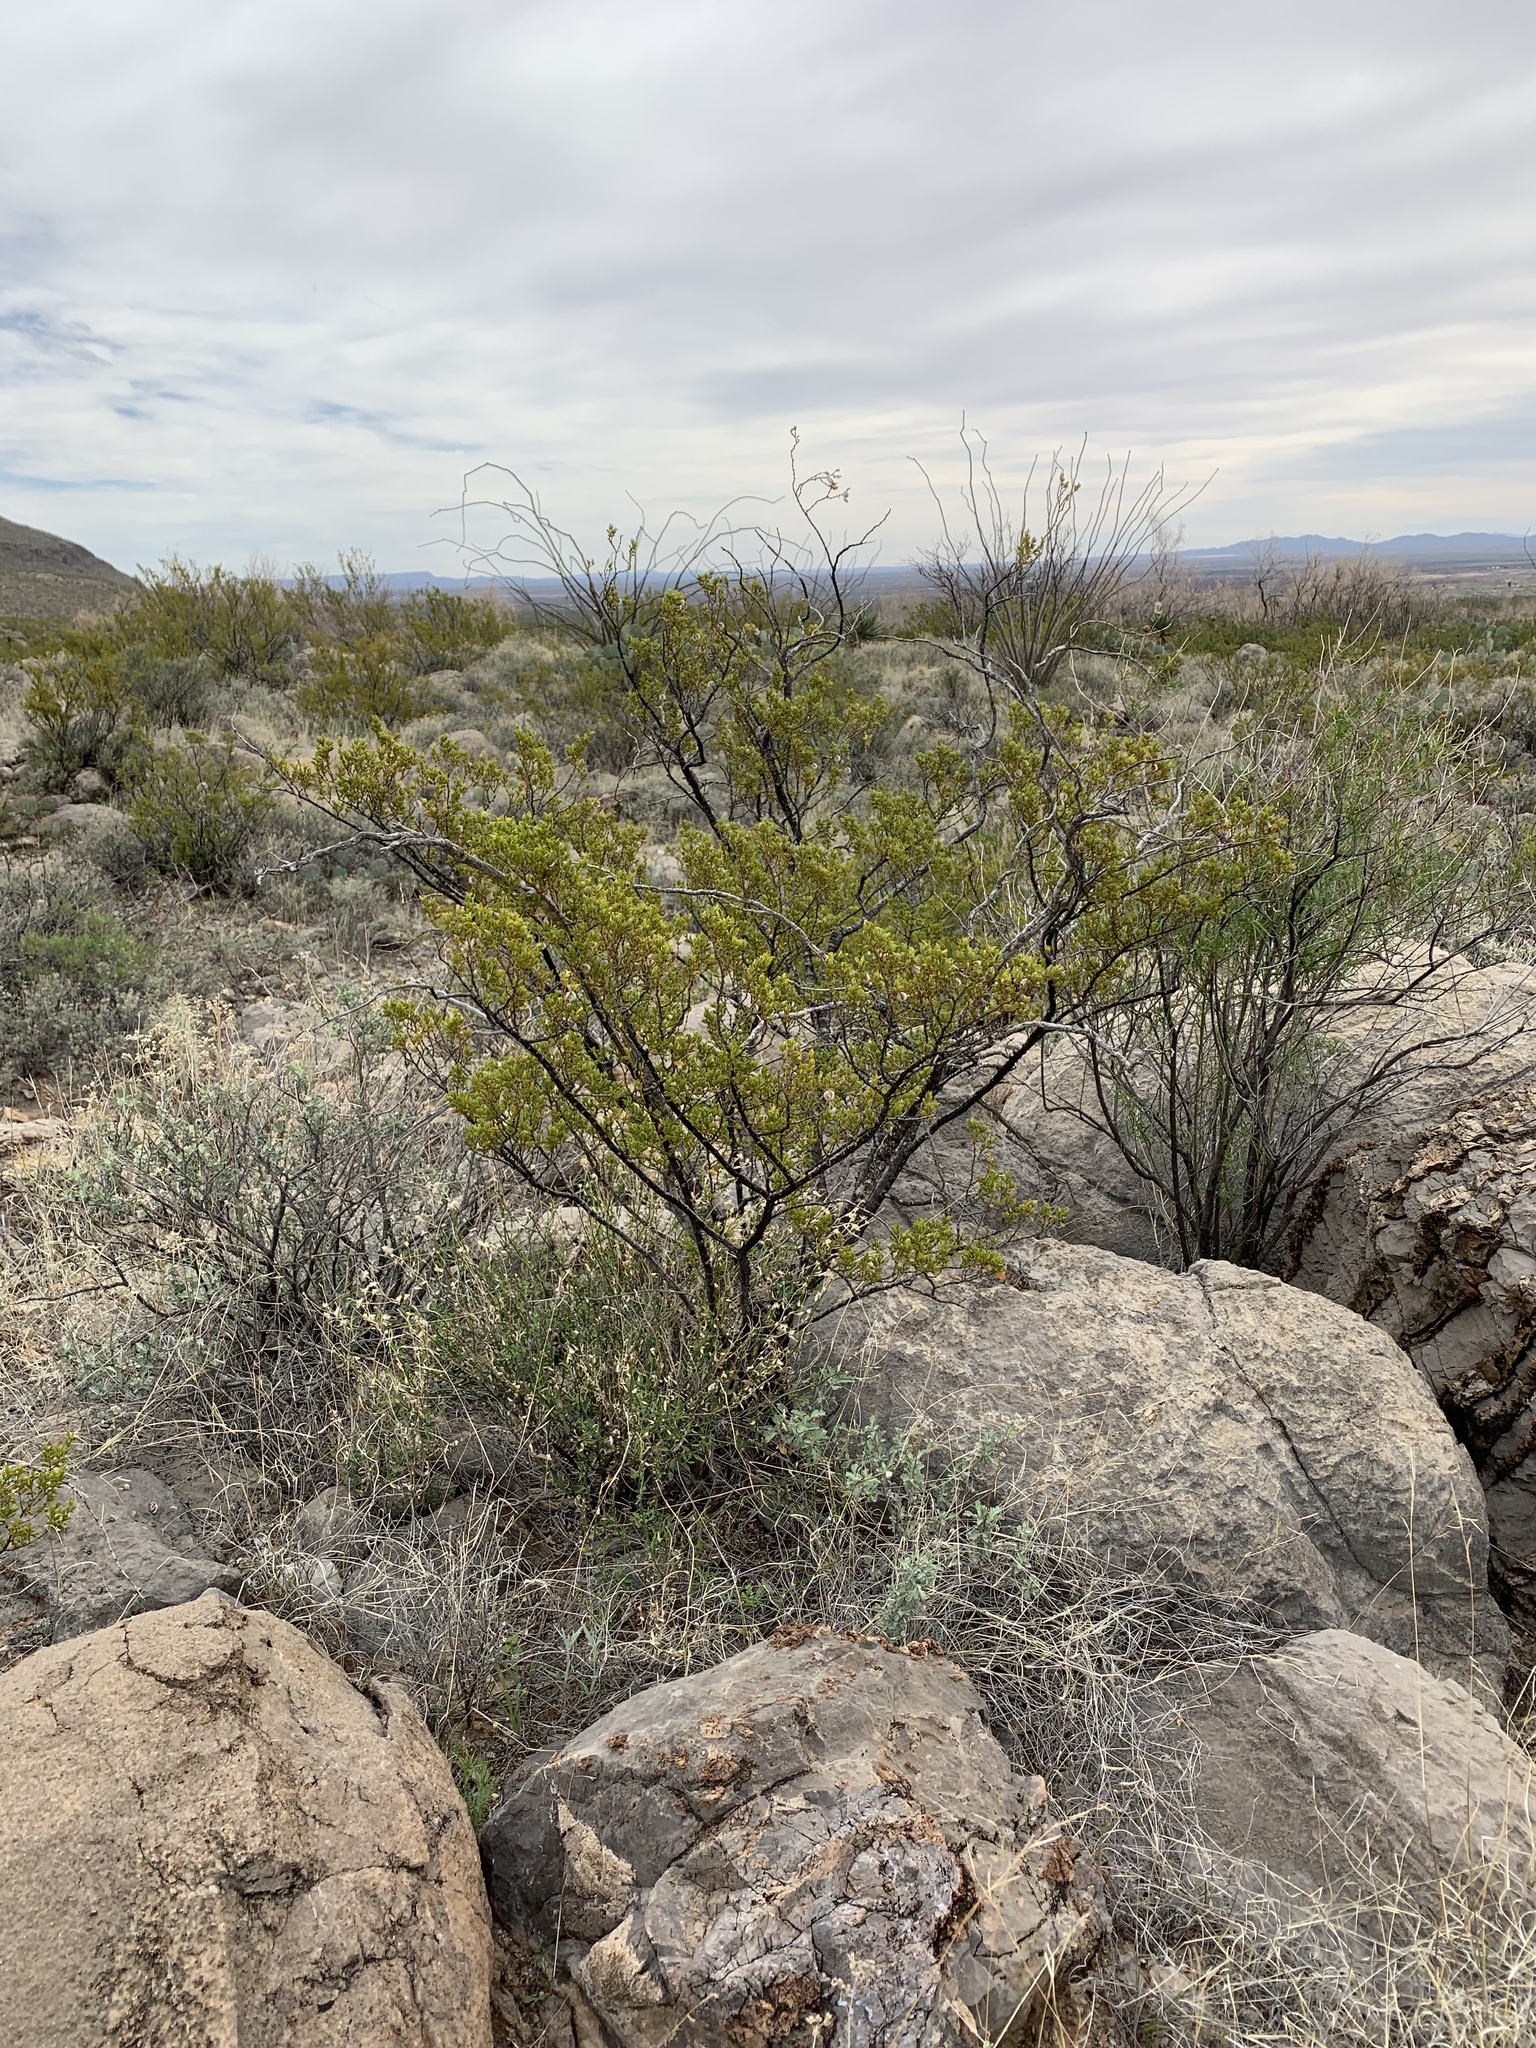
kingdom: Plantae
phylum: Tracheophyta
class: Magnoliopsida
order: Zygophyllales
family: Zygophyllaceae
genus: Larrea
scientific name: Larrea tridentata
